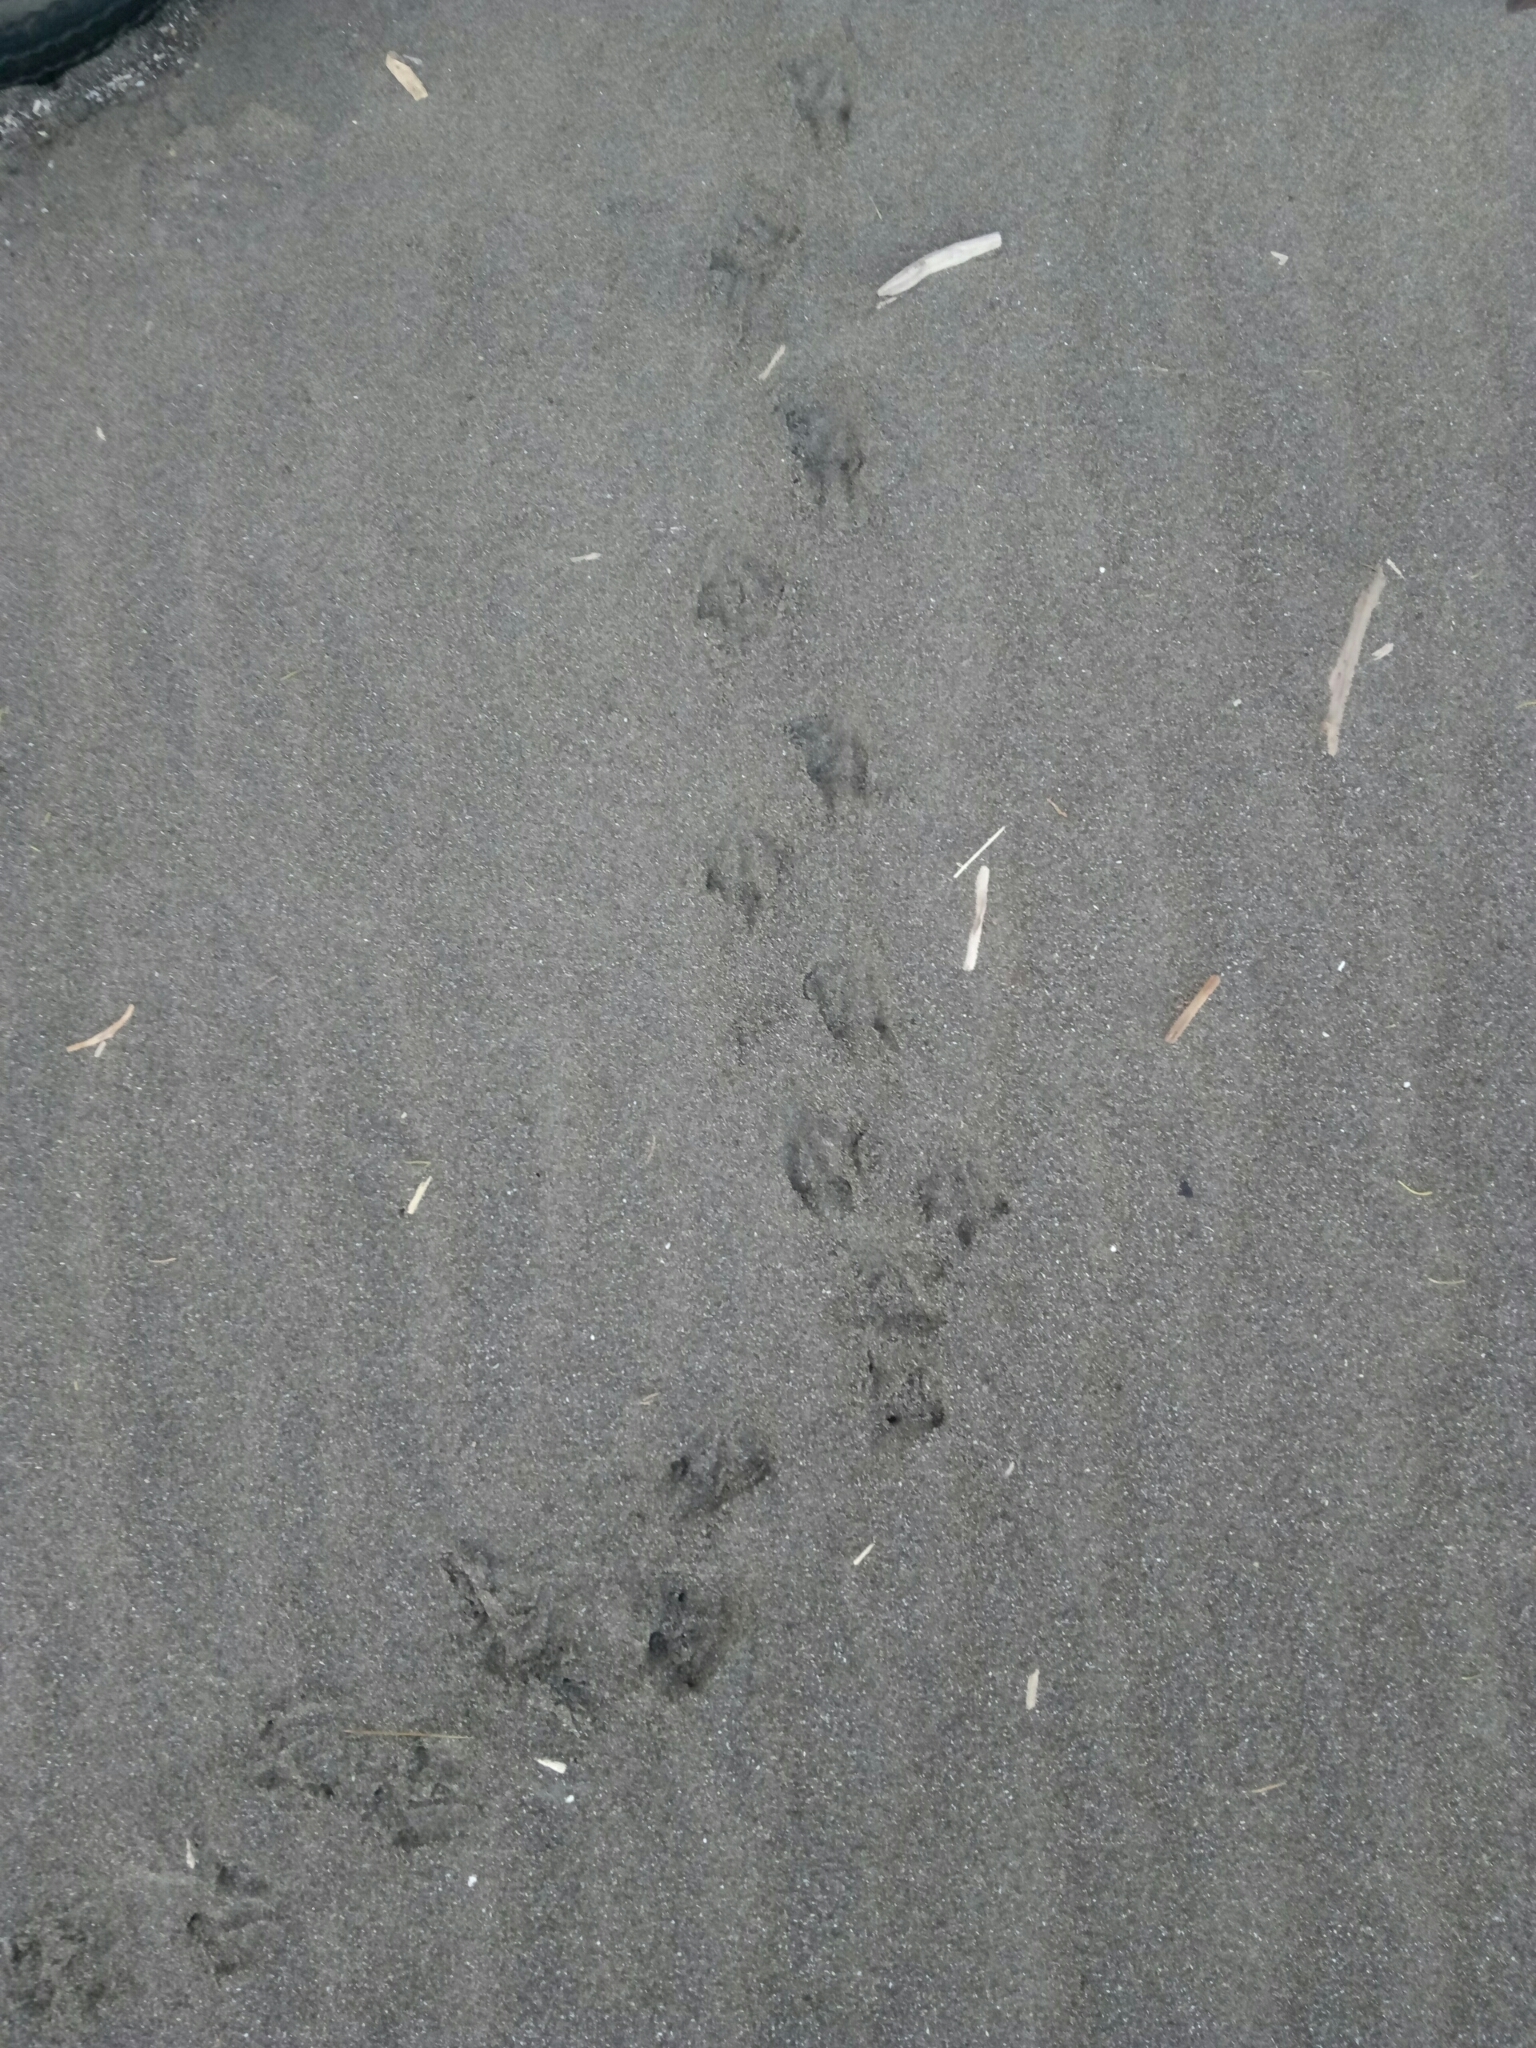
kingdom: Animalia
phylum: Chordata
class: Aves
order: Sphenisciformes
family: Spheniscidae
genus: Eudyptula
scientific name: Eudyptula minor
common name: Little penguin
